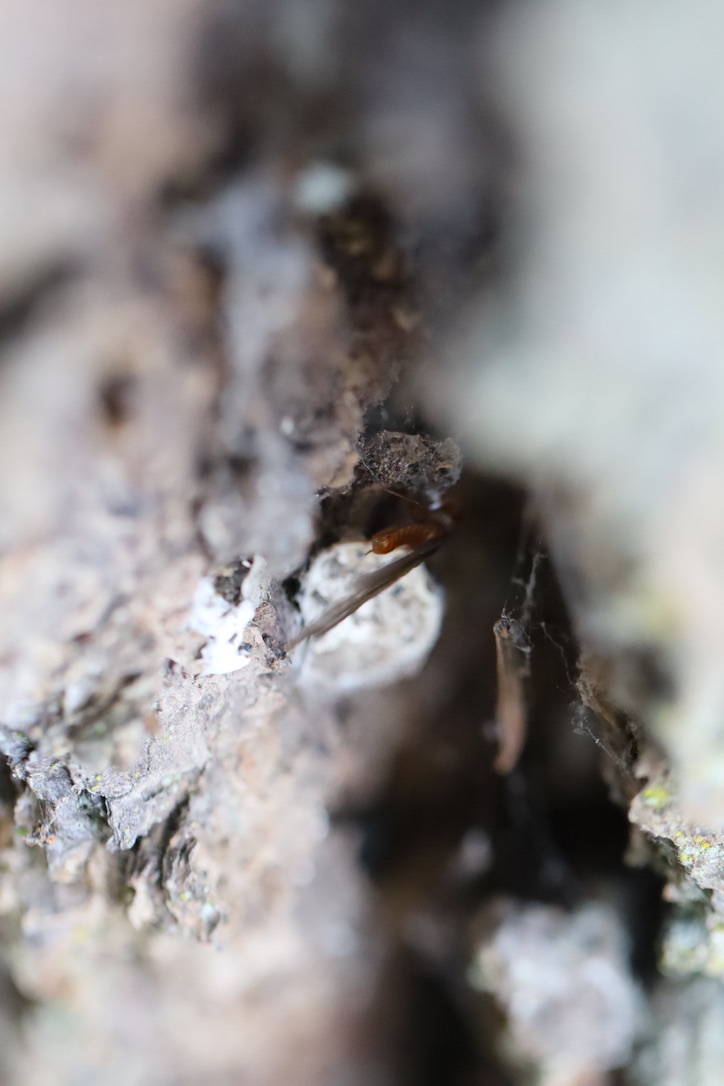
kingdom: Animalia
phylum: Arthropoda
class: Insecta
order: Blattodea
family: Archotermopsidae
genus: Zootermopsis
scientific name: Zootermopsis angusticollis
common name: Rottenwood termite
